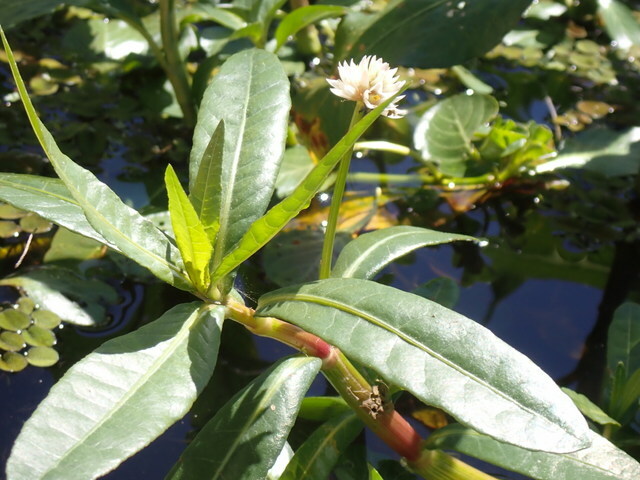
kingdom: Plantae
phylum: Tracheophyta
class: Magnoliopsida
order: Caryophyllales
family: Amaranthaceae
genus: Alternanthera
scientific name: Alternanthera philoxeroides
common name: Alligatorweed
